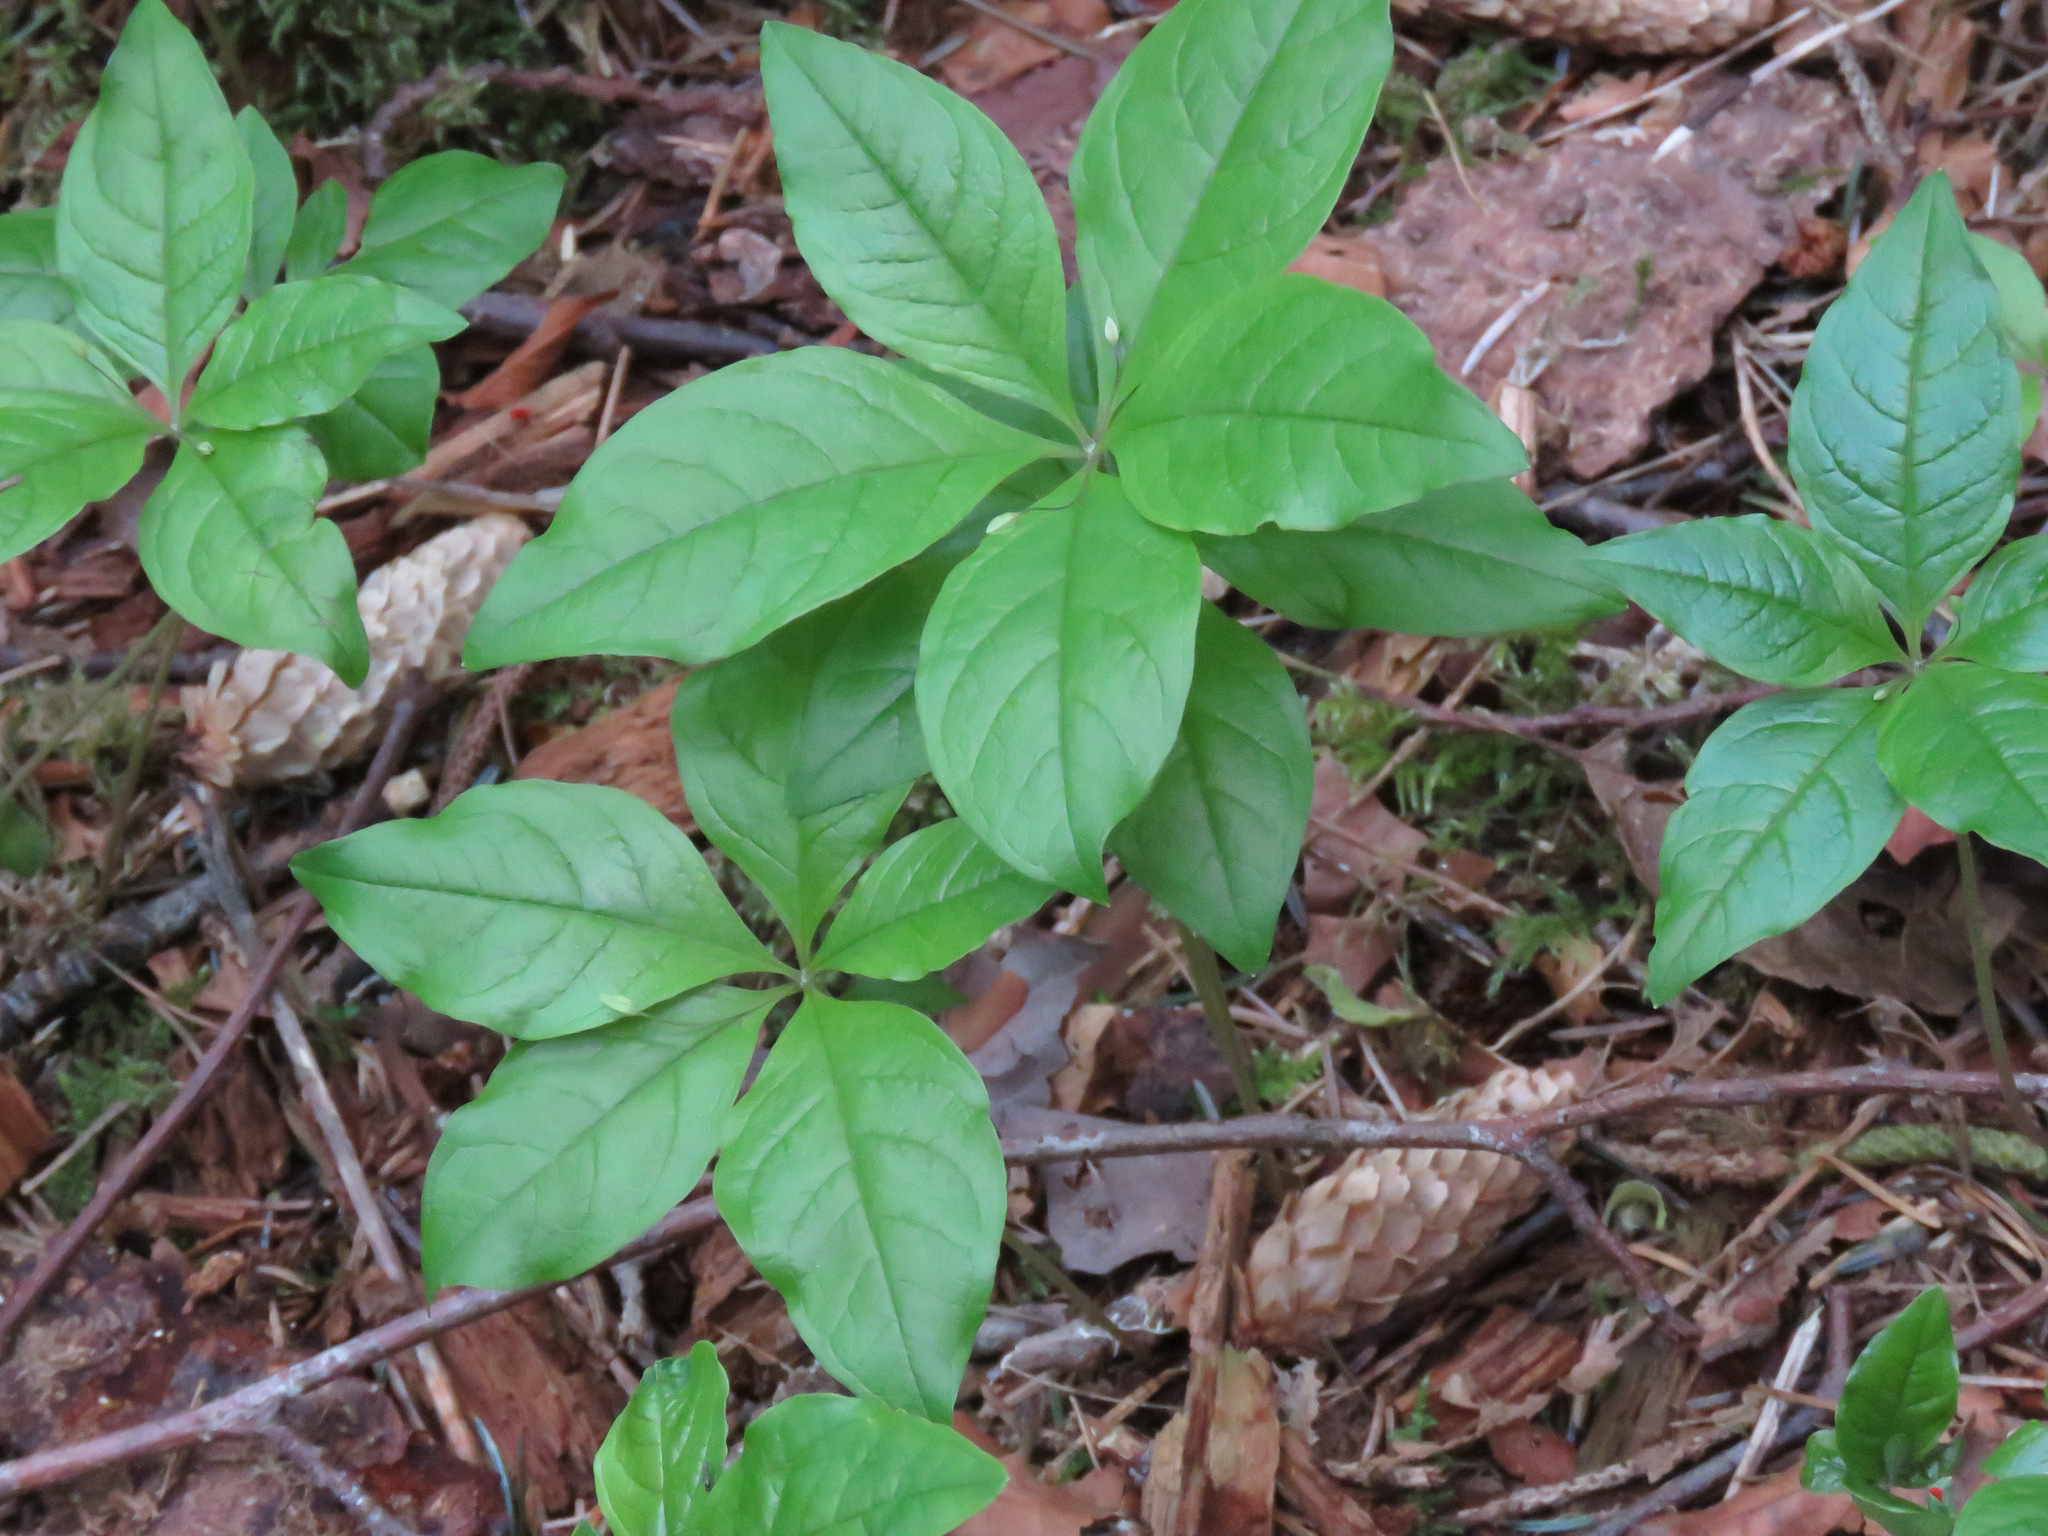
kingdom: Plantae
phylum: Tracheophyta
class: Magnoliopsida
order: Ericales
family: Primulaceae
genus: Lysimachia
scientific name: Lysimachia latifolia
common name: Pacific starflower
